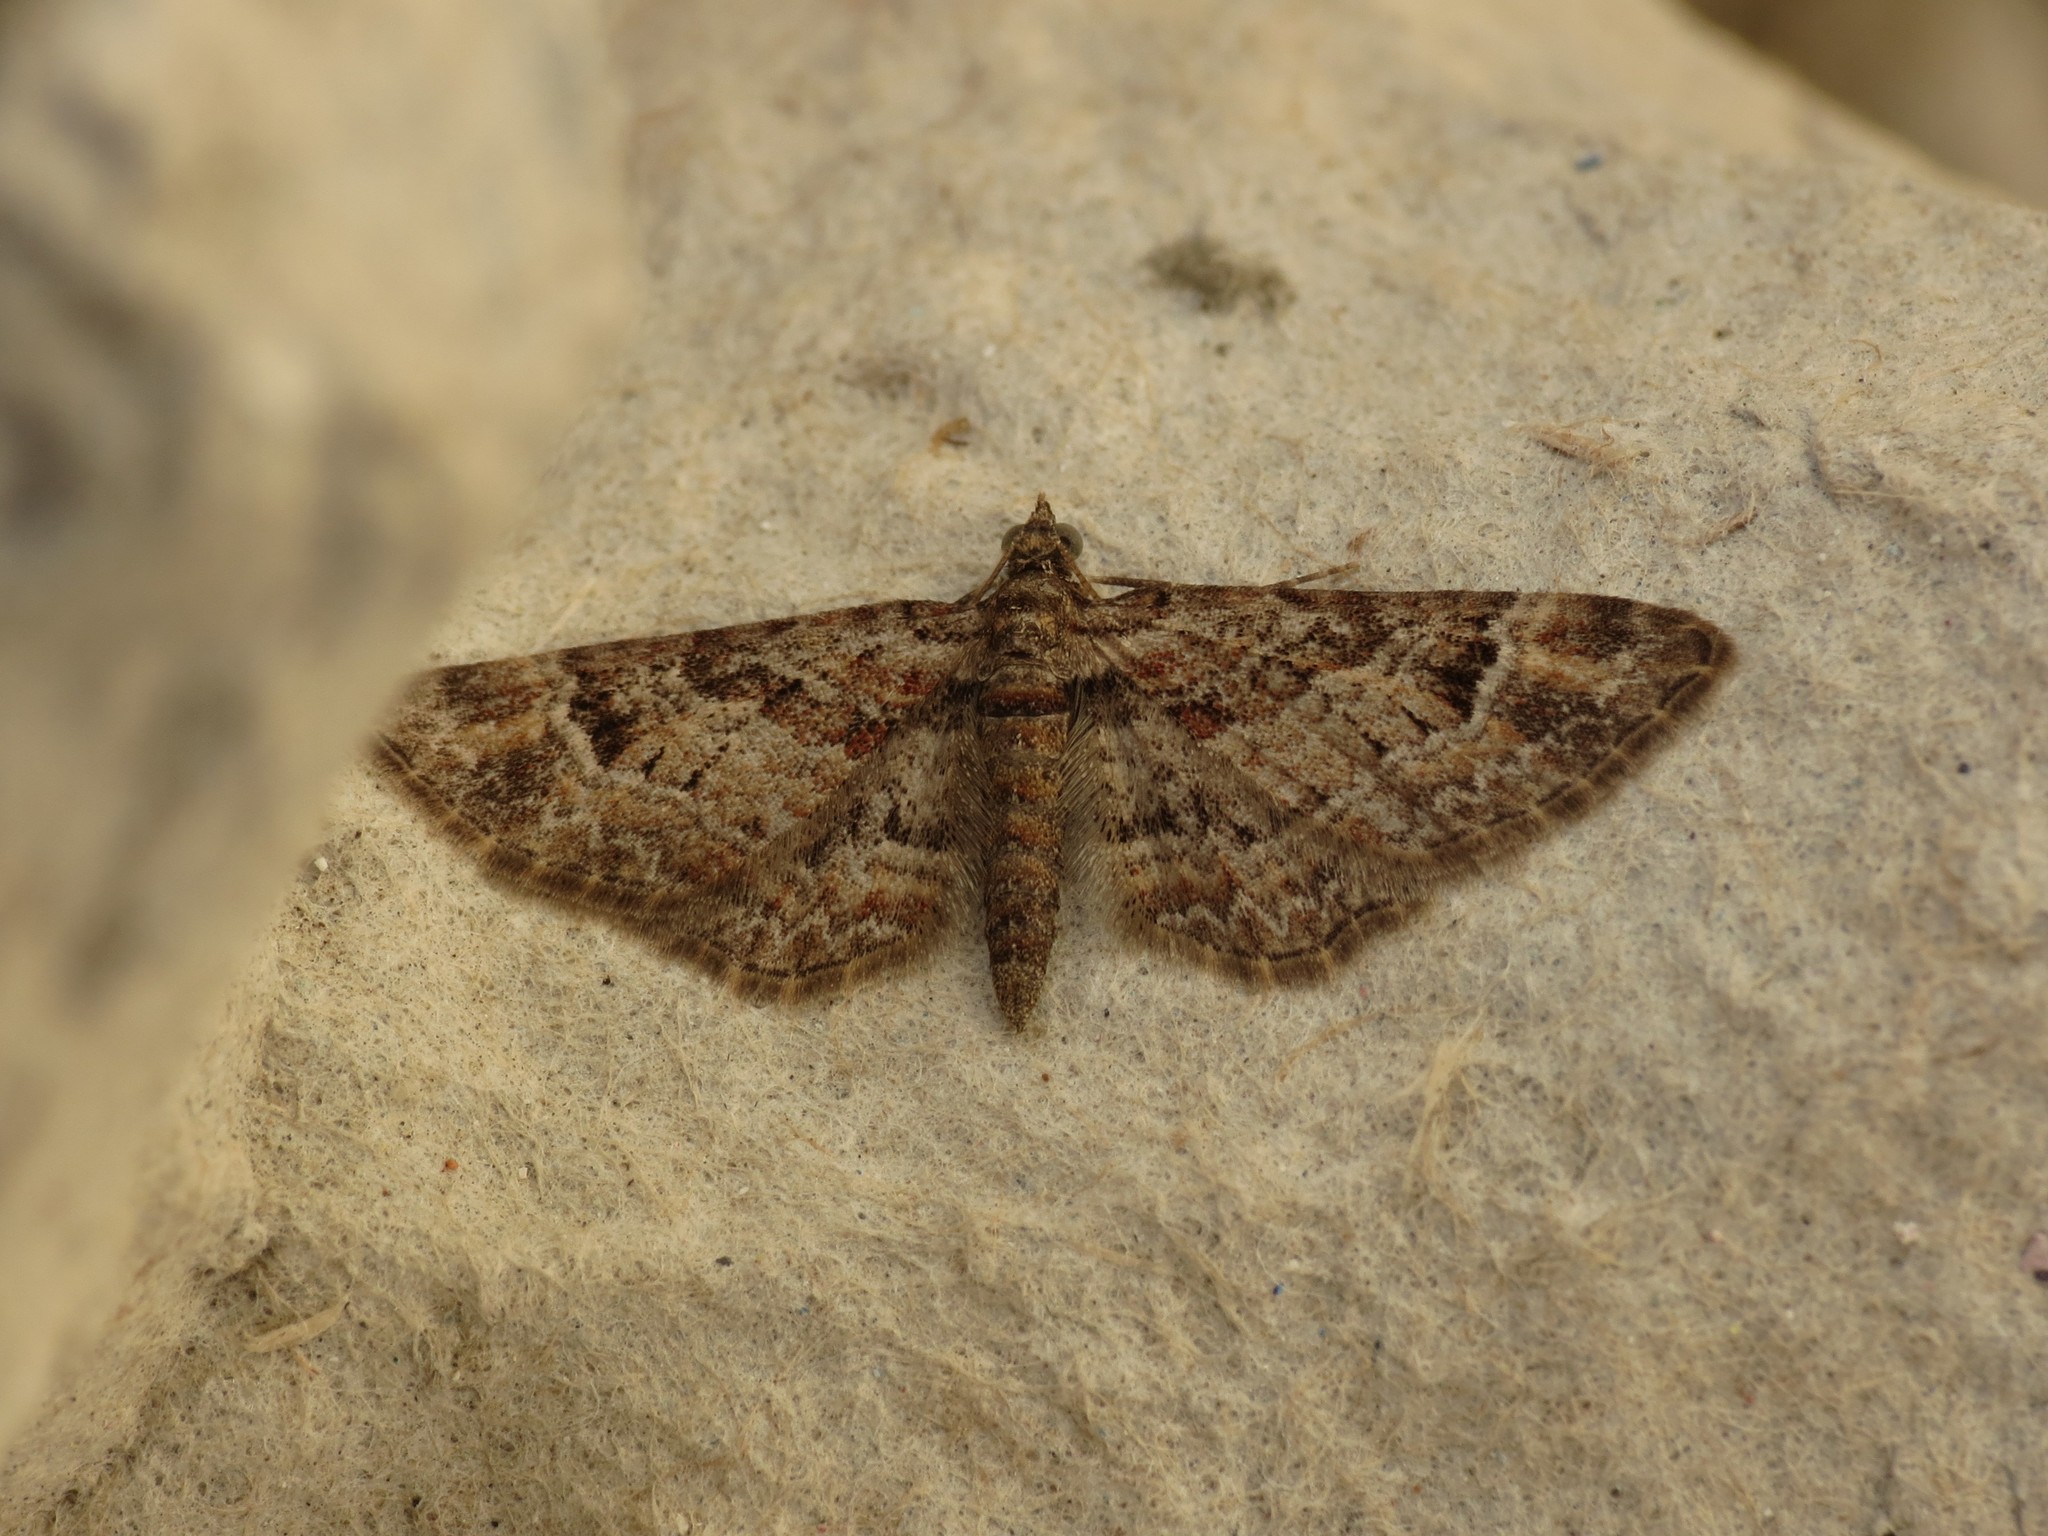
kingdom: Animalia
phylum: Arthropoda
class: Insecta
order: Lepidoptera
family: Geometridae
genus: Gymnoscelis
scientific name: Gymnoscelis rufifasciata
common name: Double-striped pug
